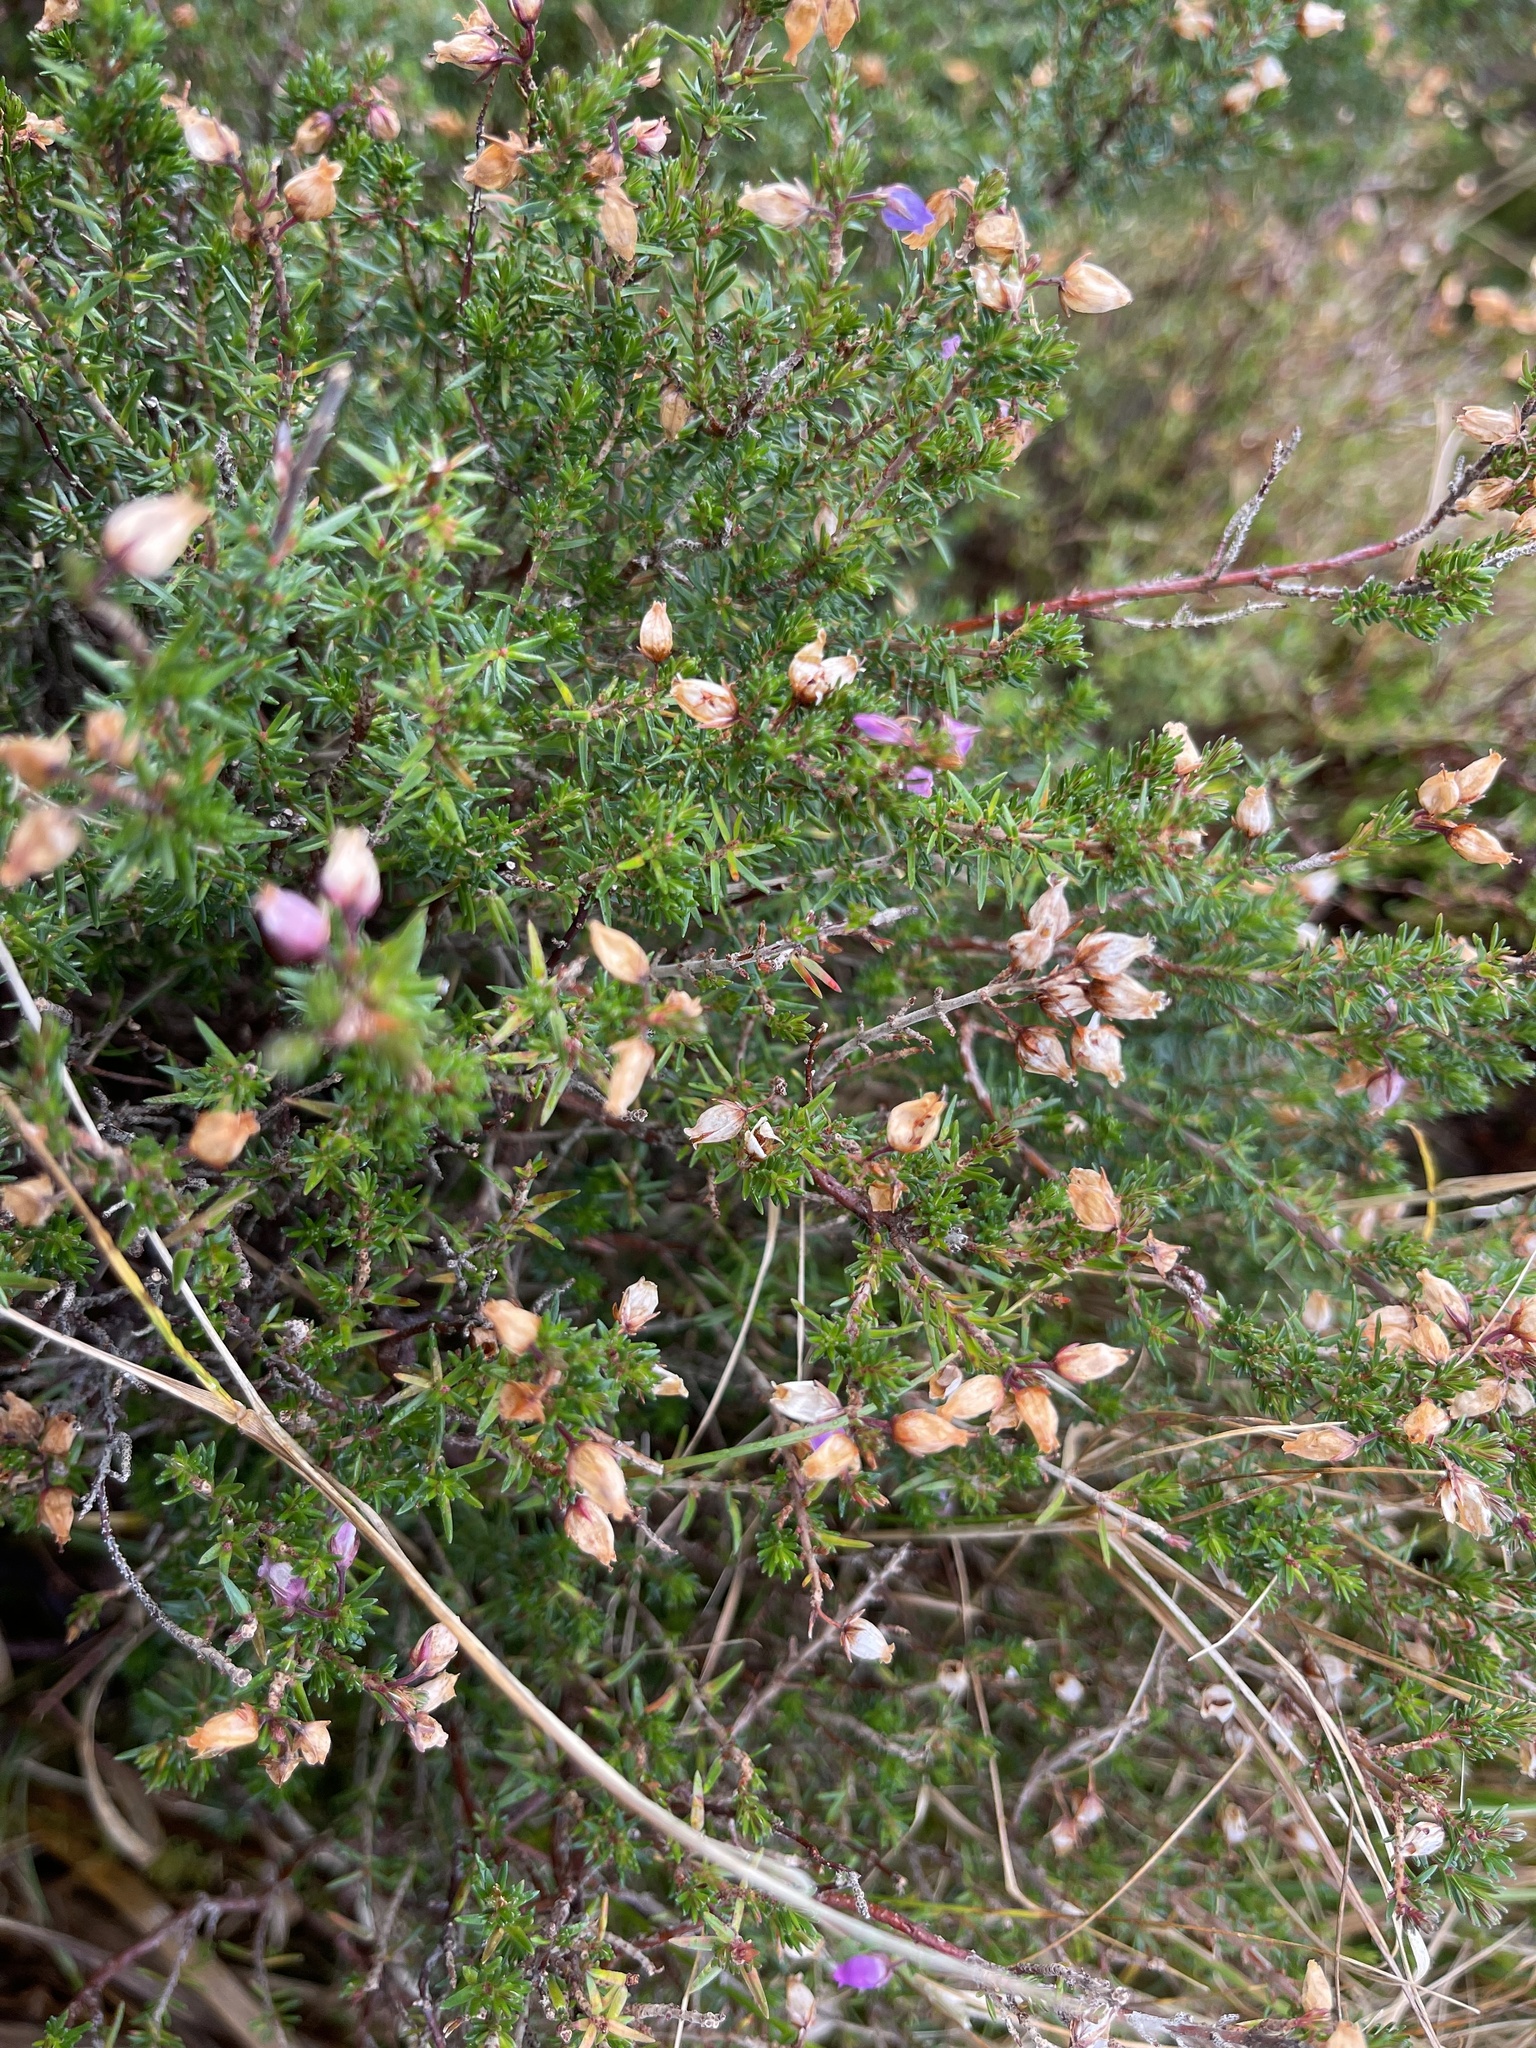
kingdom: Plantae
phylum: Tracheophyta
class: Magnoliopsida
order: Ericales
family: Ericaceae
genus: Erica
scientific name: Erica cinerea
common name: Bell heather
